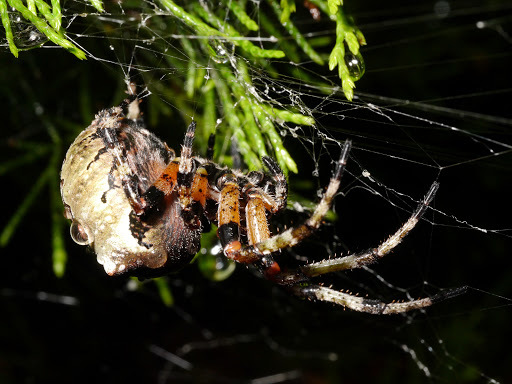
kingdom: Animalia
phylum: Arthropoda
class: Arachnida
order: Araneae
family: Araneidae
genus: Araneus
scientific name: Araneus bicentenarius
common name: Giant lichen orbweaver
